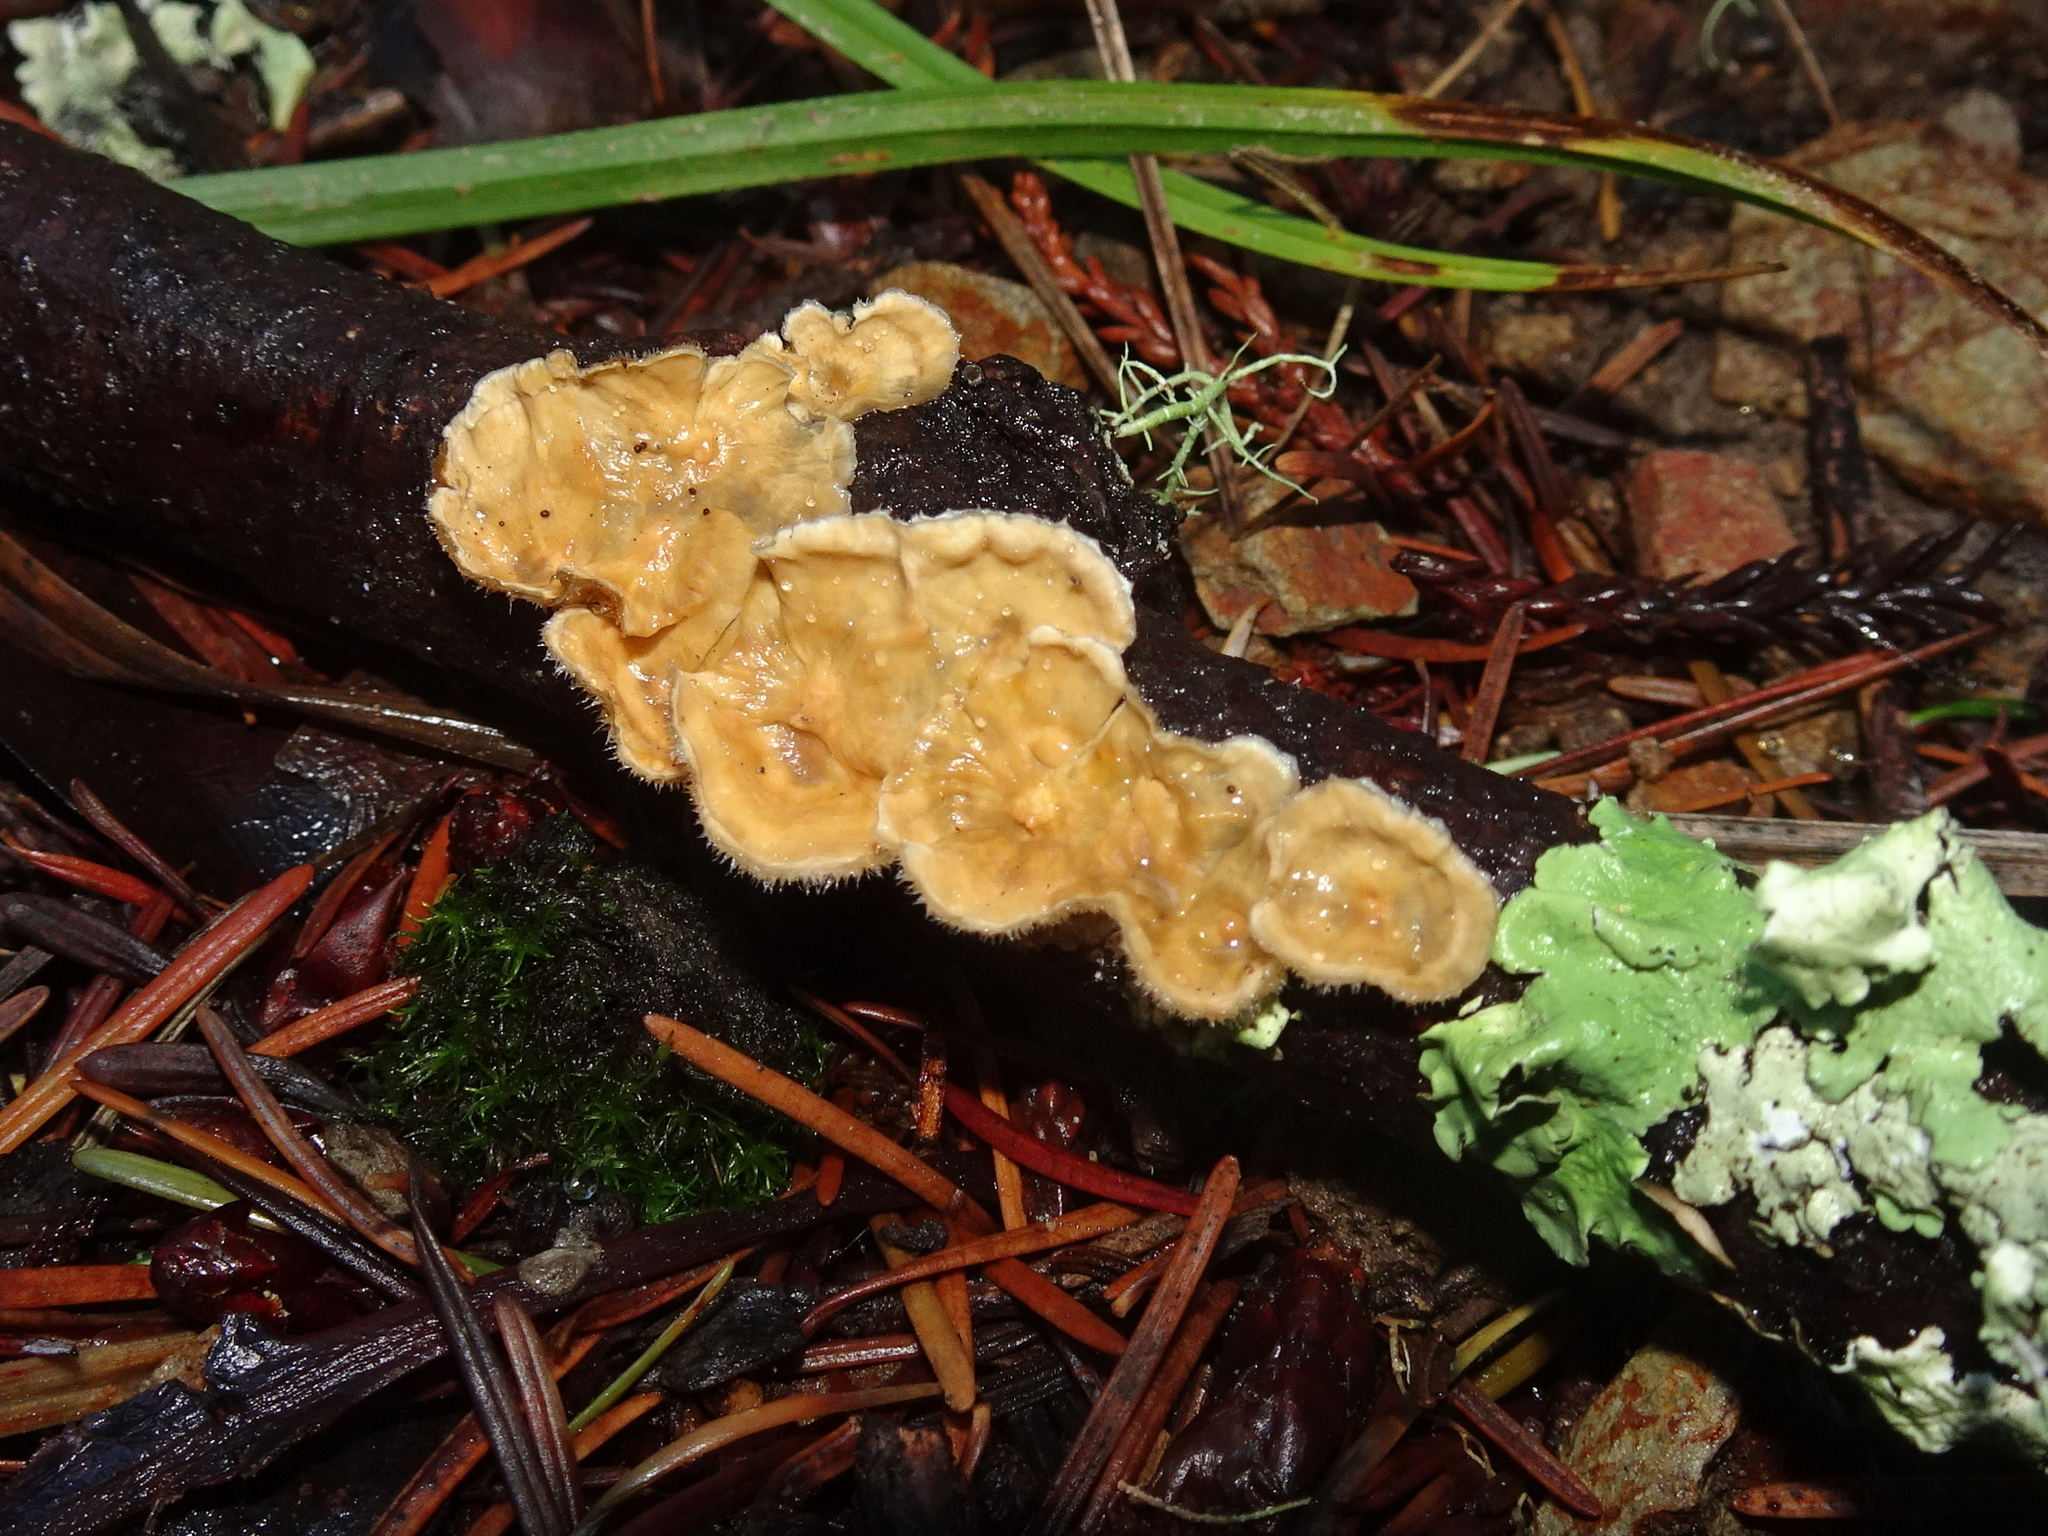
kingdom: Fungi
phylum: Basidiomycota
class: Agaricomycetes
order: Russulales
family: Stereaceae
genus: Stereum
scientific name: Stereum ochraceoflavum
